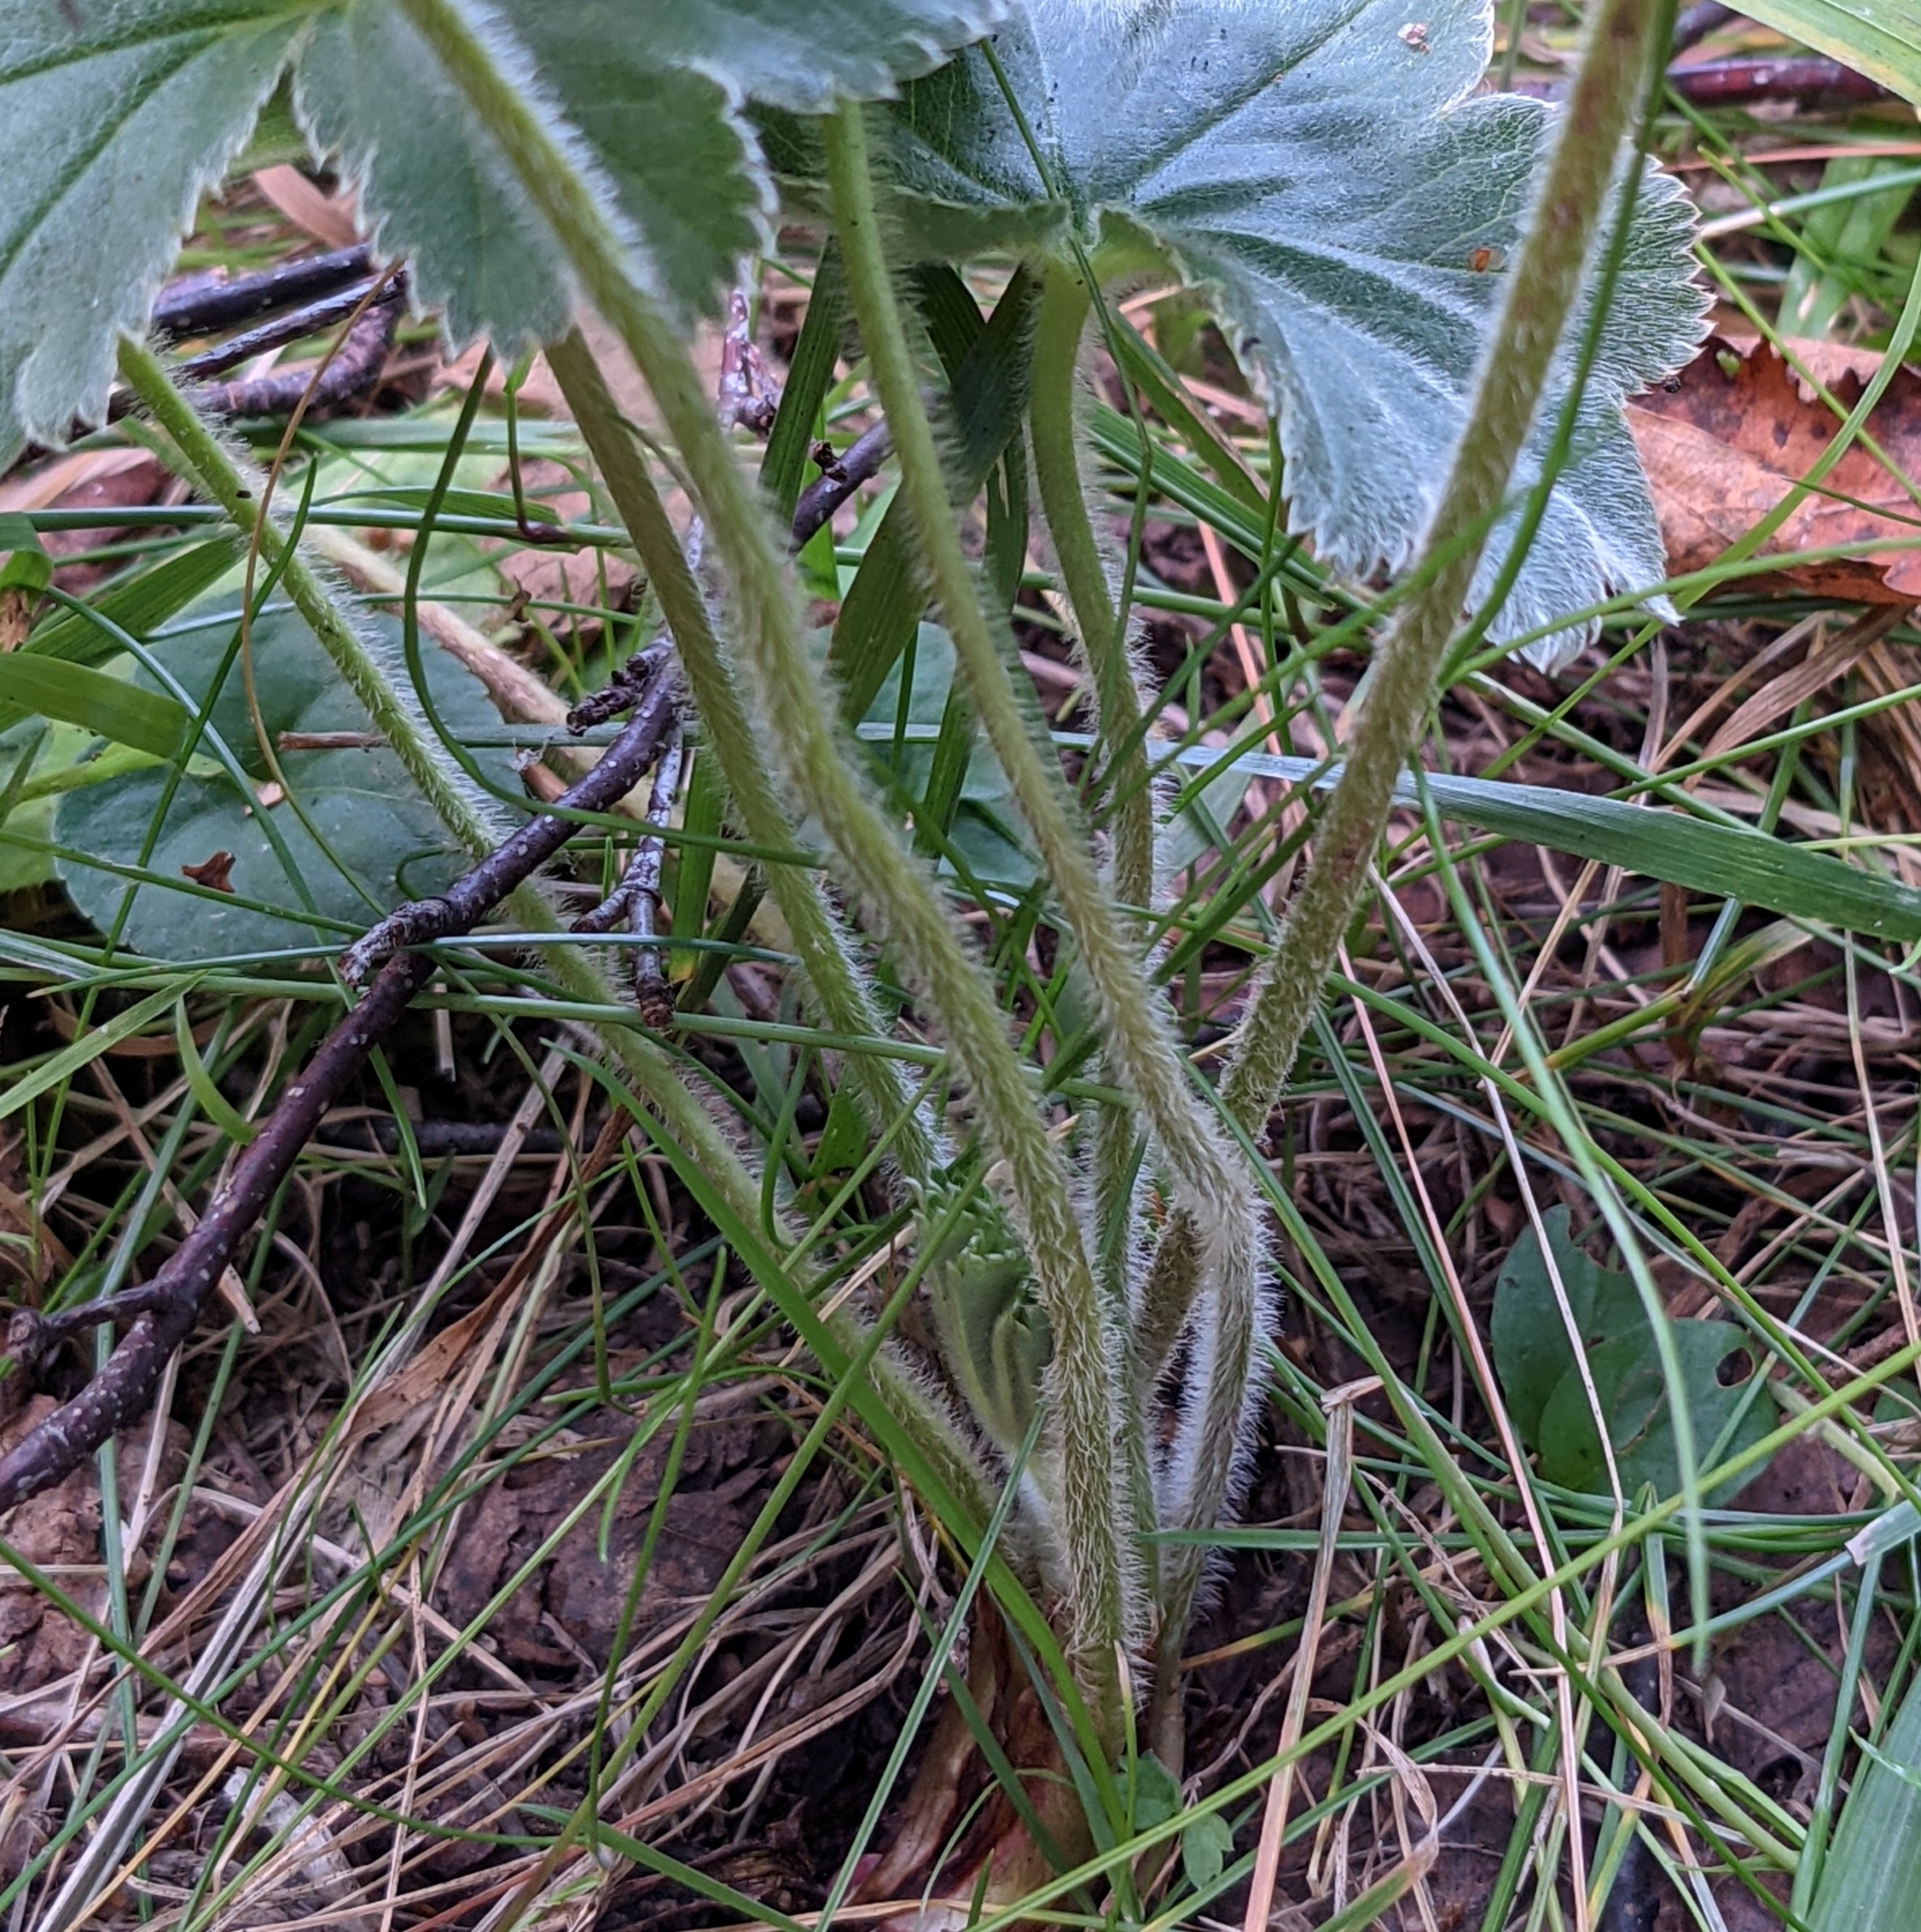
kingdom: Plantae
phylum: Tracheophyta
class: Magnoliopsida
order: Rosales
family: Rosaceae
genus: Alchemilla
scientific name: Alchemilla breviloba
